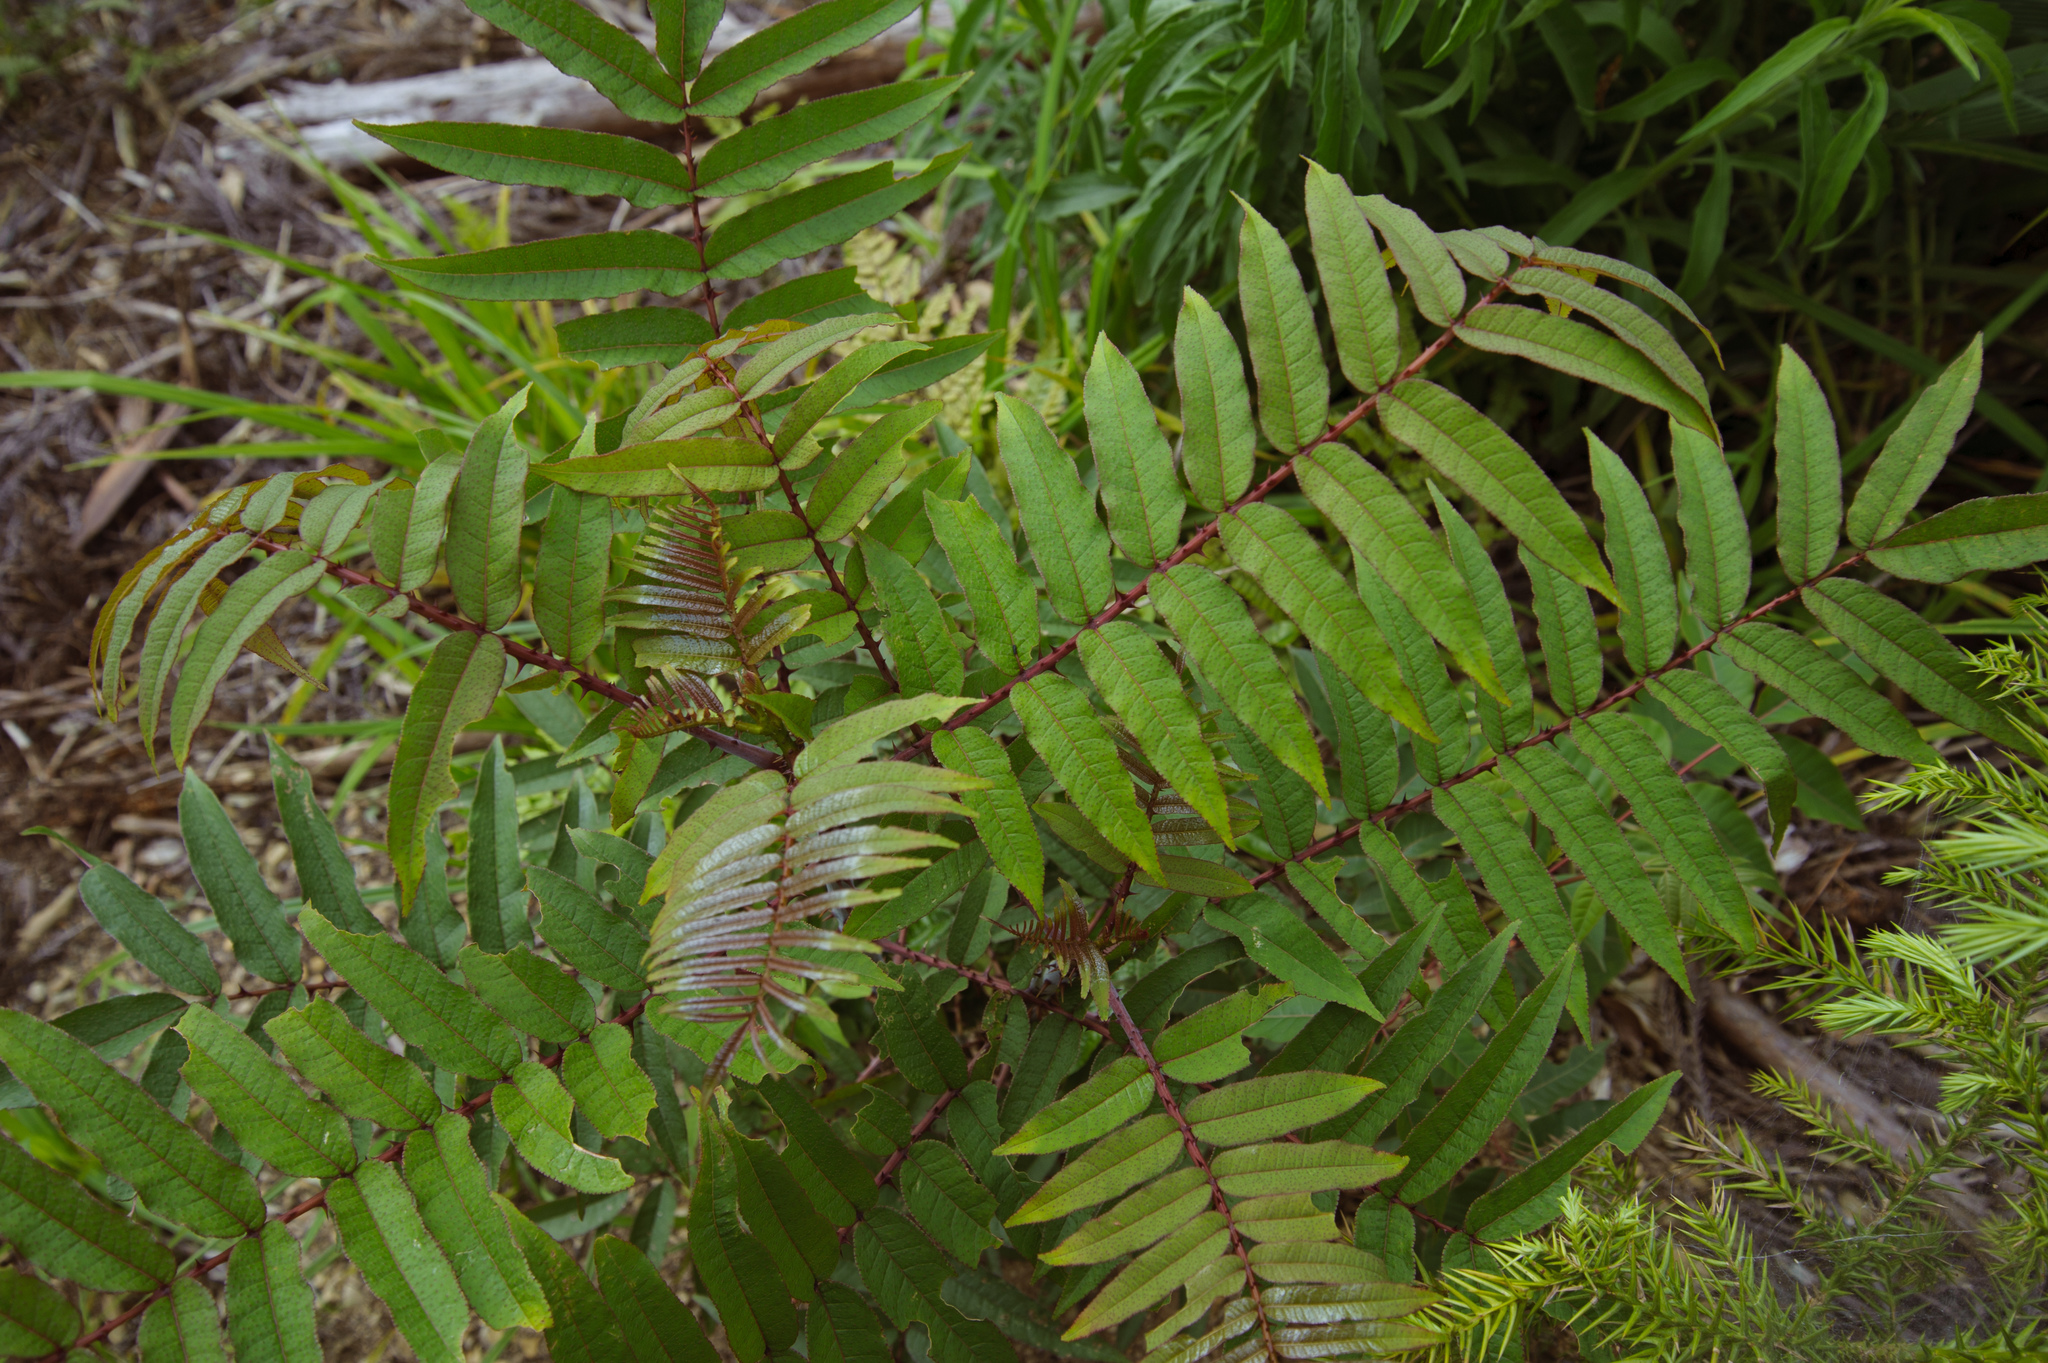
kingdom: Plantae
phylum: Tracheophyta
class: Magnoliopsida
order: Sapindales
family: Rutaceae
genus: Zanthoxylum
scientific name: Zanthoxylum ailanthoides
